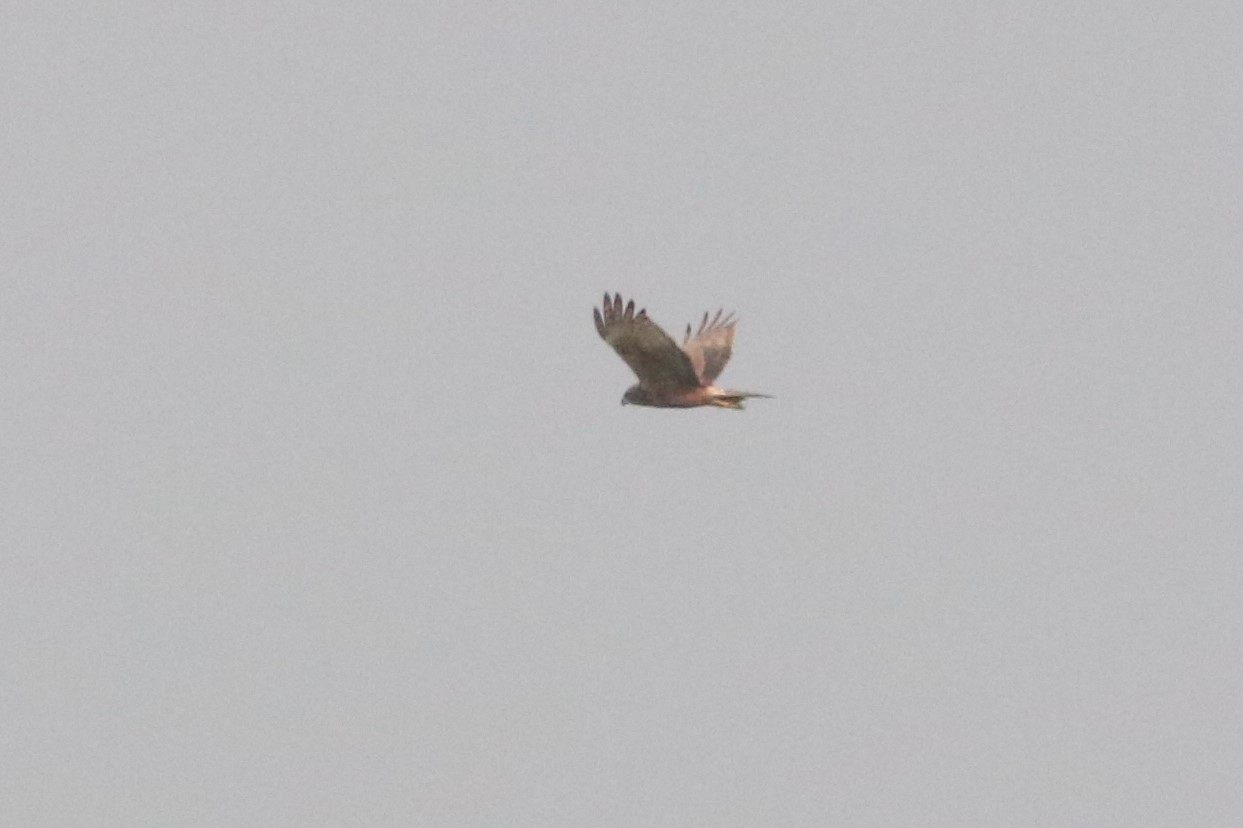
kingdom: Animalia
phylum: Chordata
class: Aves
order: Accipitriformes
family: Accipitridae
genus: Circus
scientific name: Circus spilonotus
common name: Eastern marsh-harrier
